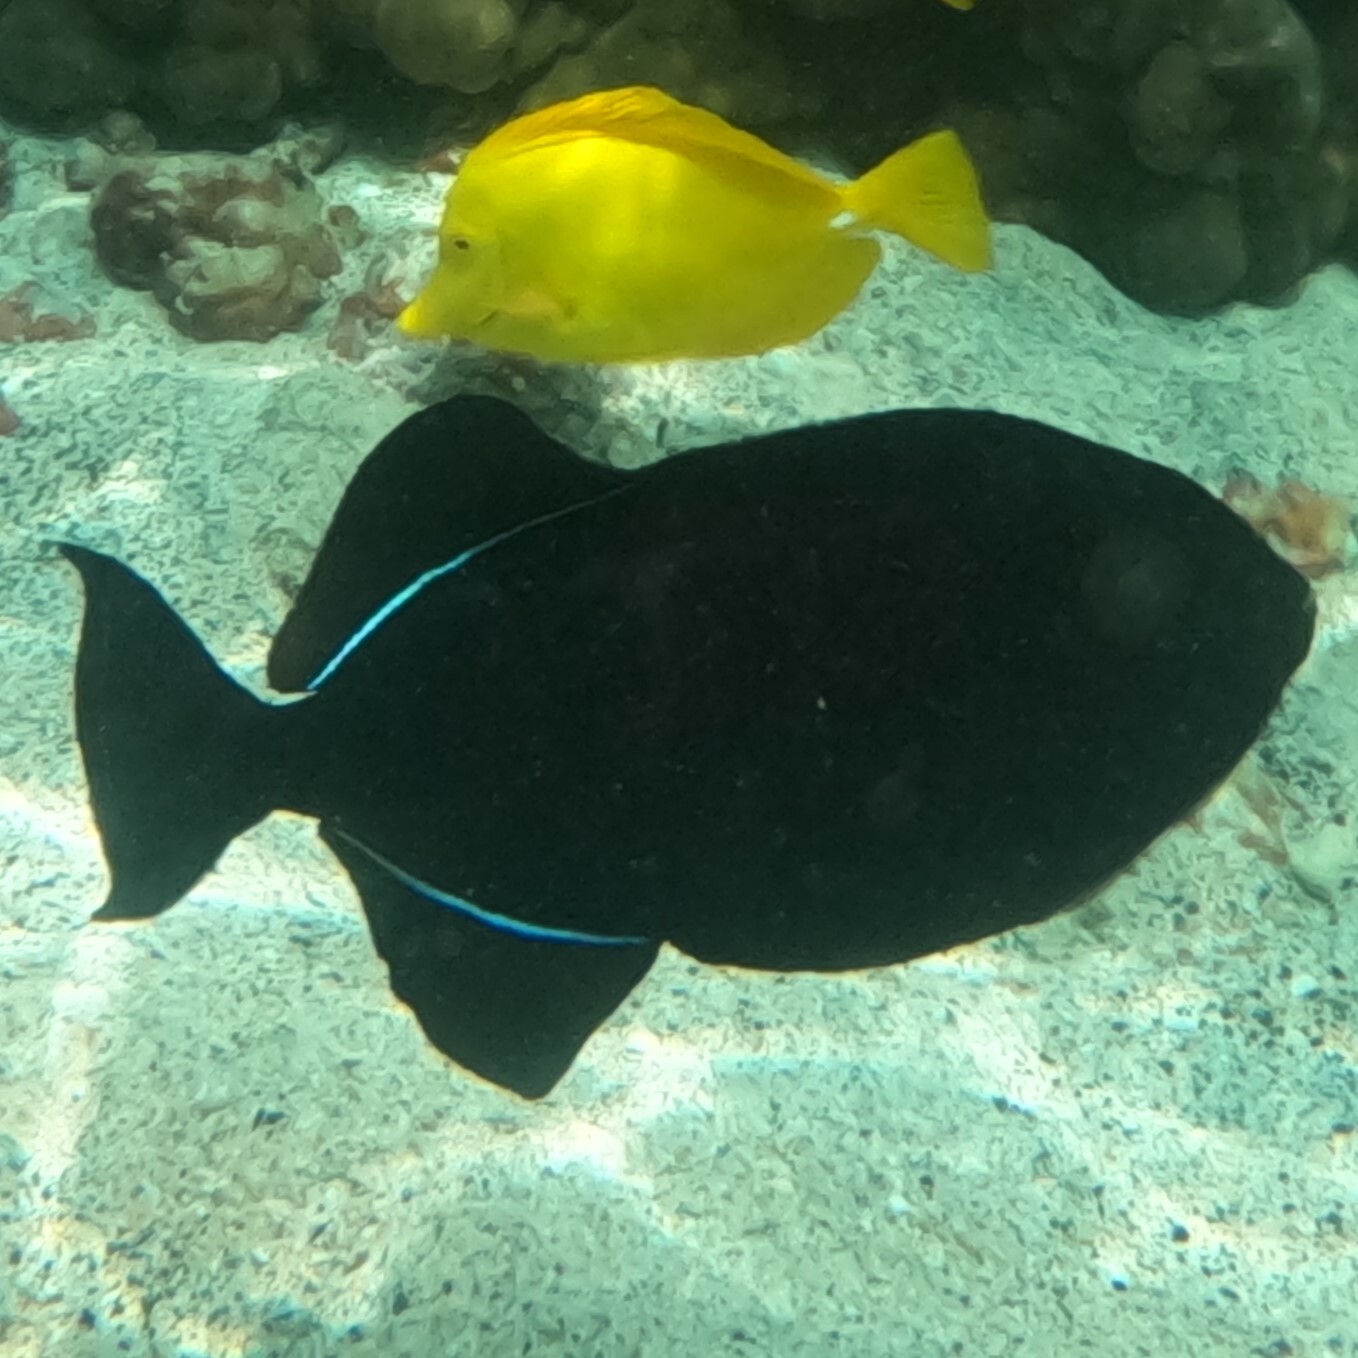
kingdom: Animalia
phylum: Chordata
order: Tetraodontiformes
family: Balistidae
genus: Melichthys
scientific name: Melichthys niger
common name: Black durgon
